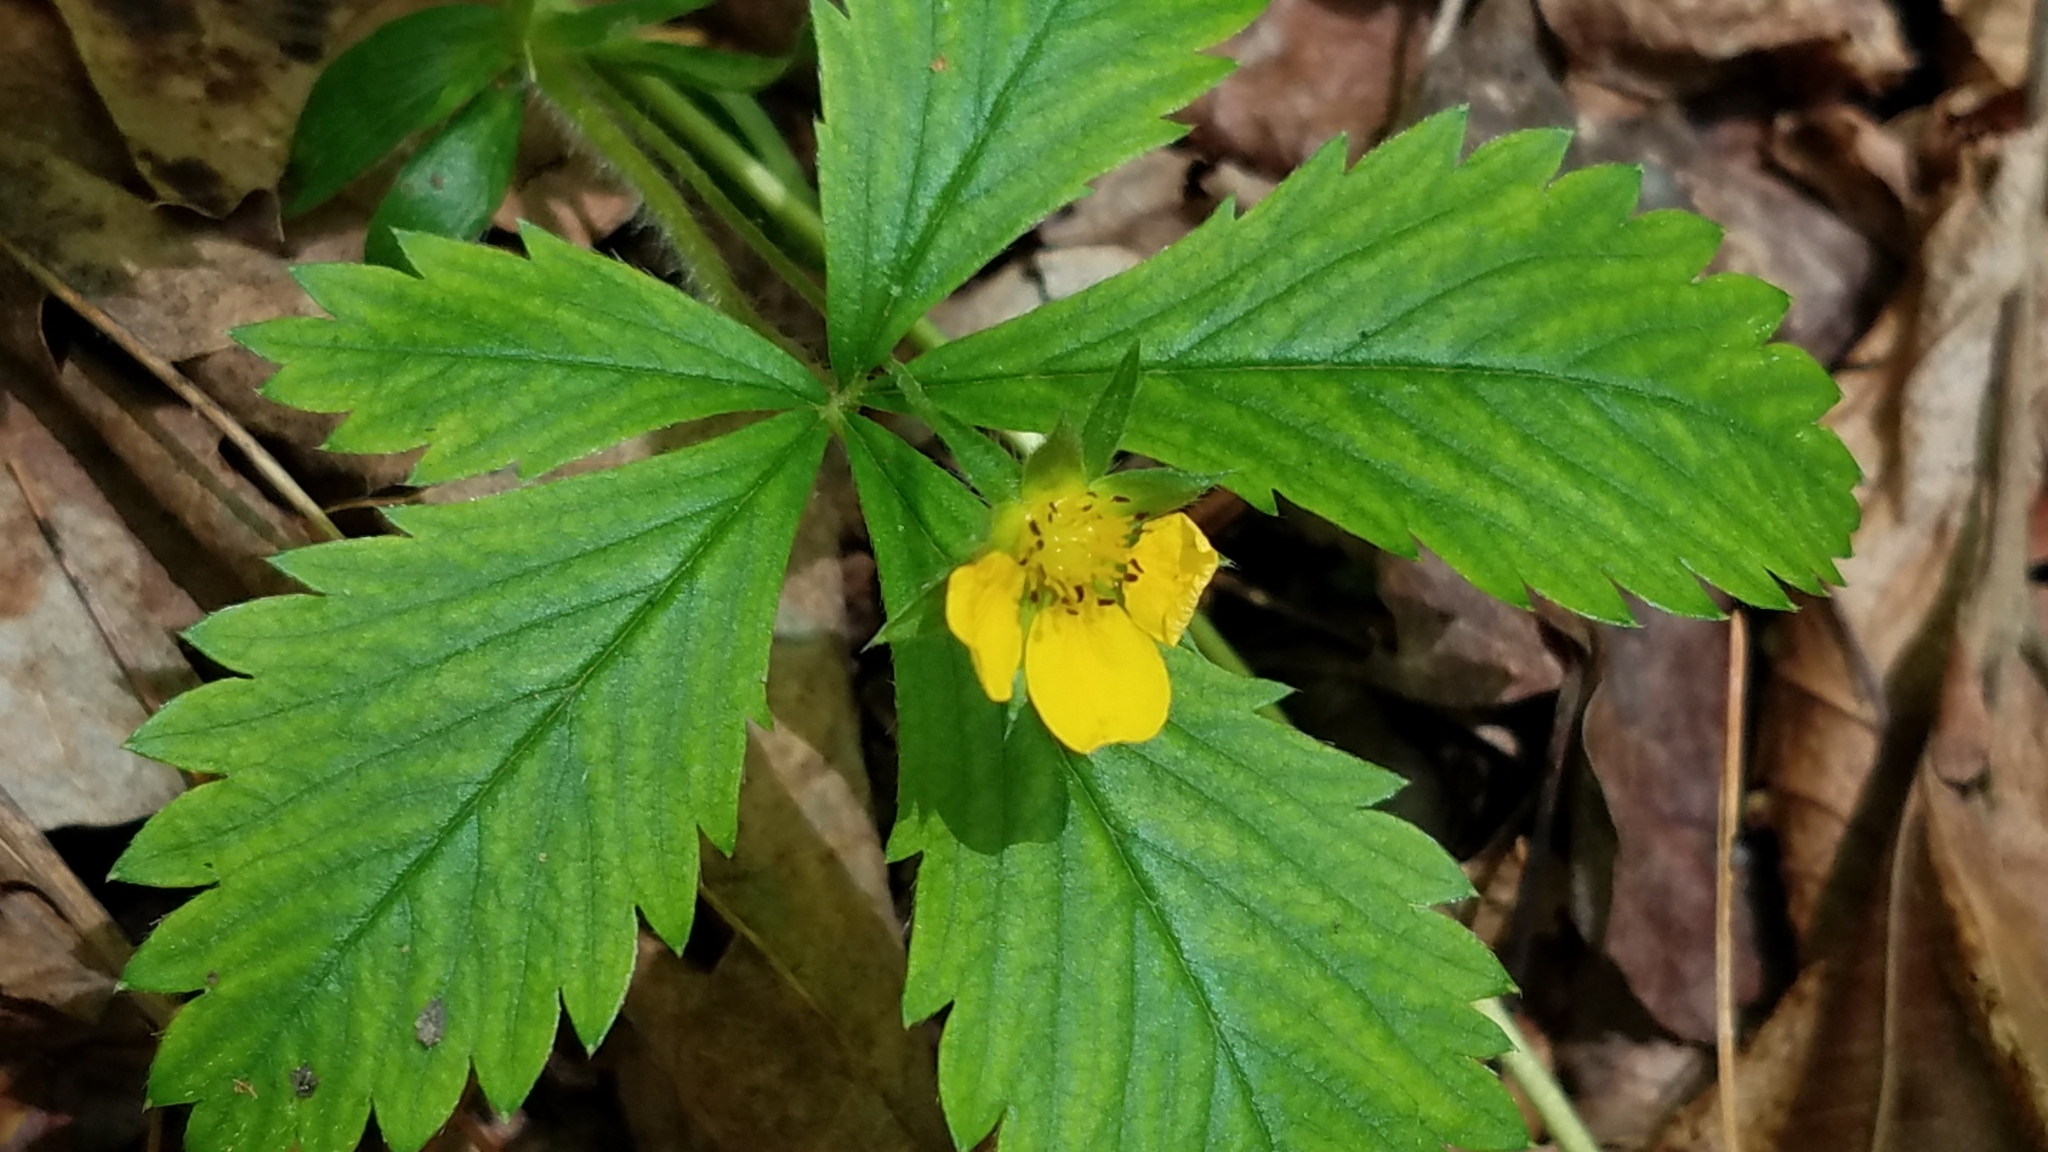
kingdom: Plantae
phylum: Tracheophyta
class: Magnoliopsida
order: Rosales
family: Rosaceae
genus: Potentilla
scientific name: Potentilla simplex
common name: Old field cinquefoil
